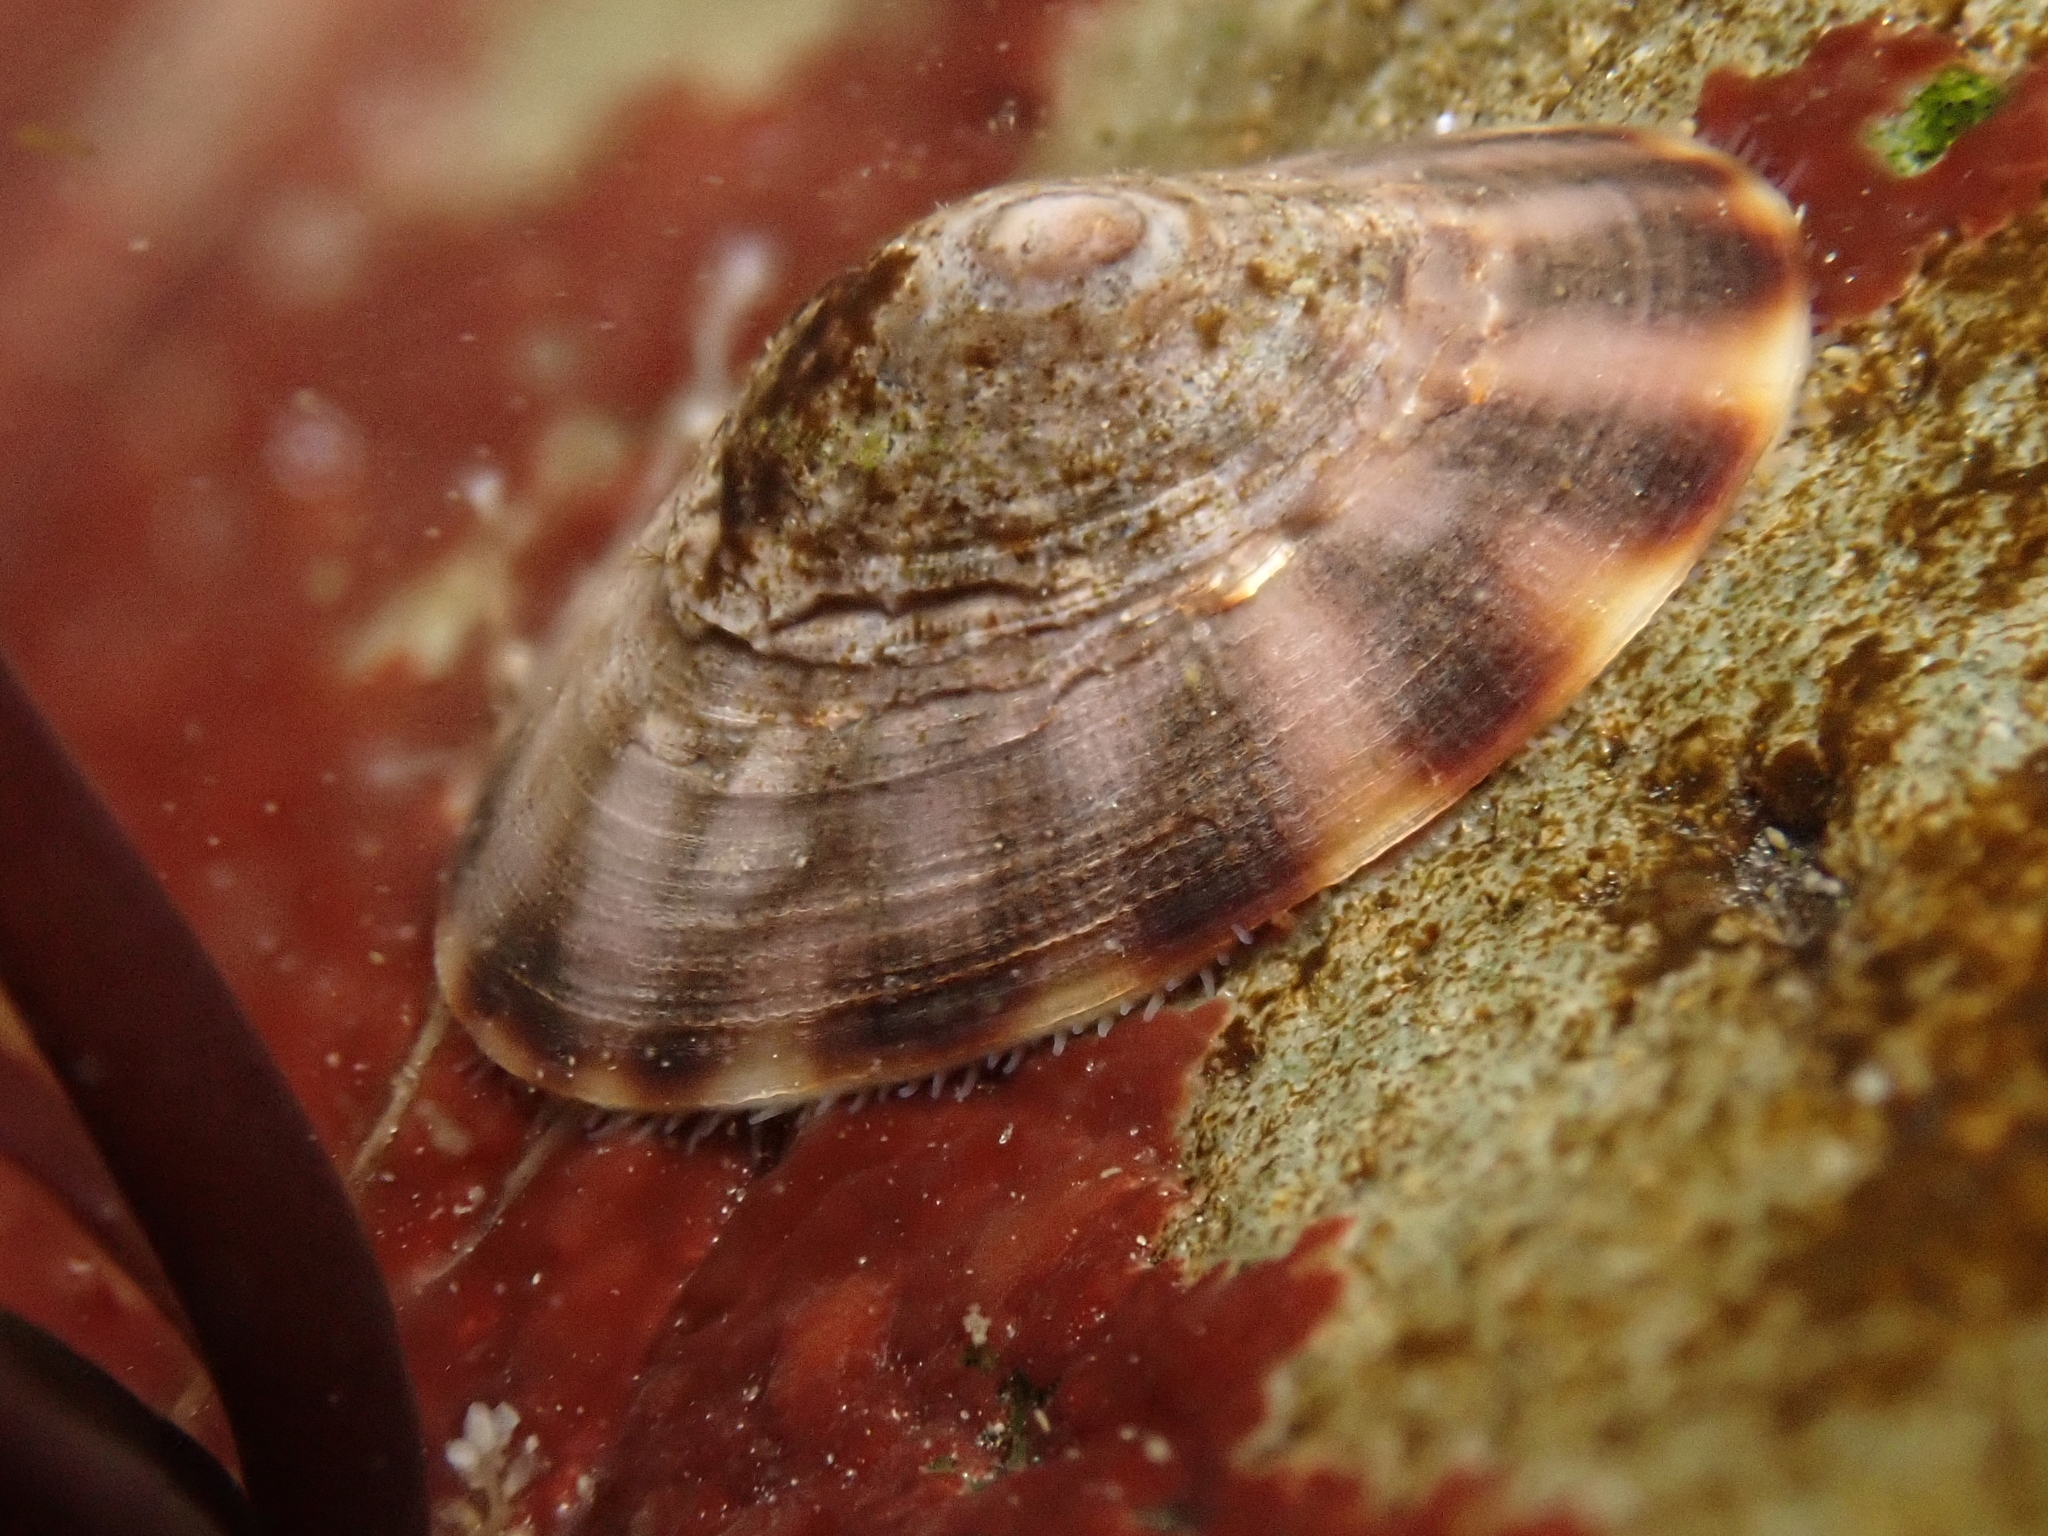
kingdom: Animalia
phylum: Mollusca
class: Gastropoda
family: Lottiidae
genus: Testudinalia
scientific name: Testudinalia testudinalis
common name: Common tortoiseshell limpet
